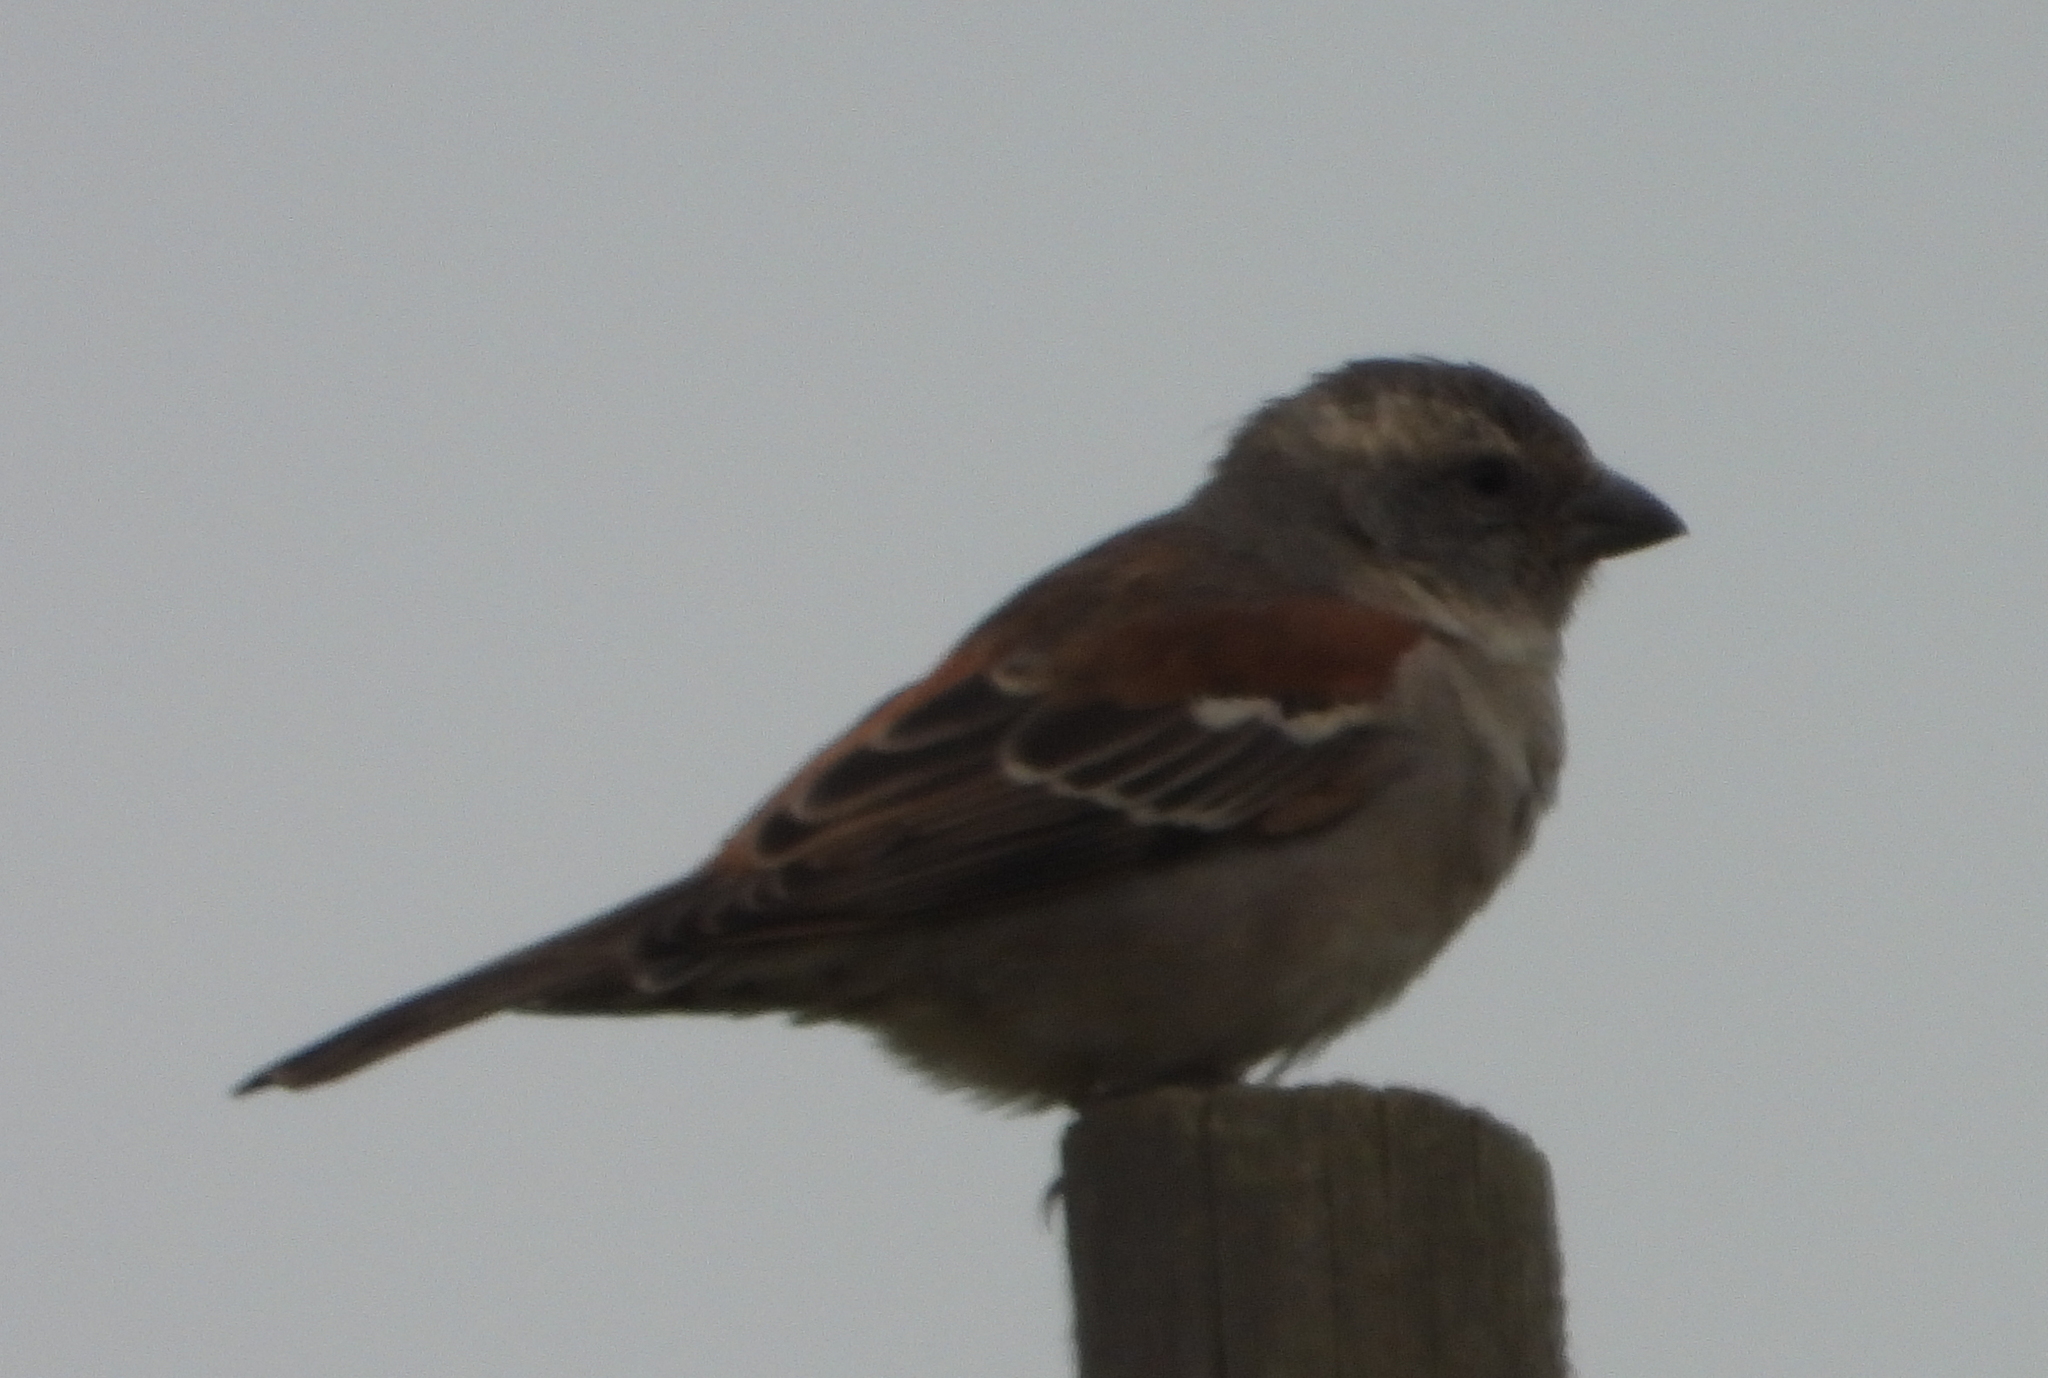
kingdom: Animalia
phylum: Chordata
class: Aves
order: Passeriformes
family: Passeridae
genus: Passer
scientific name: Passer melanurus
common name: Cape sparrow
